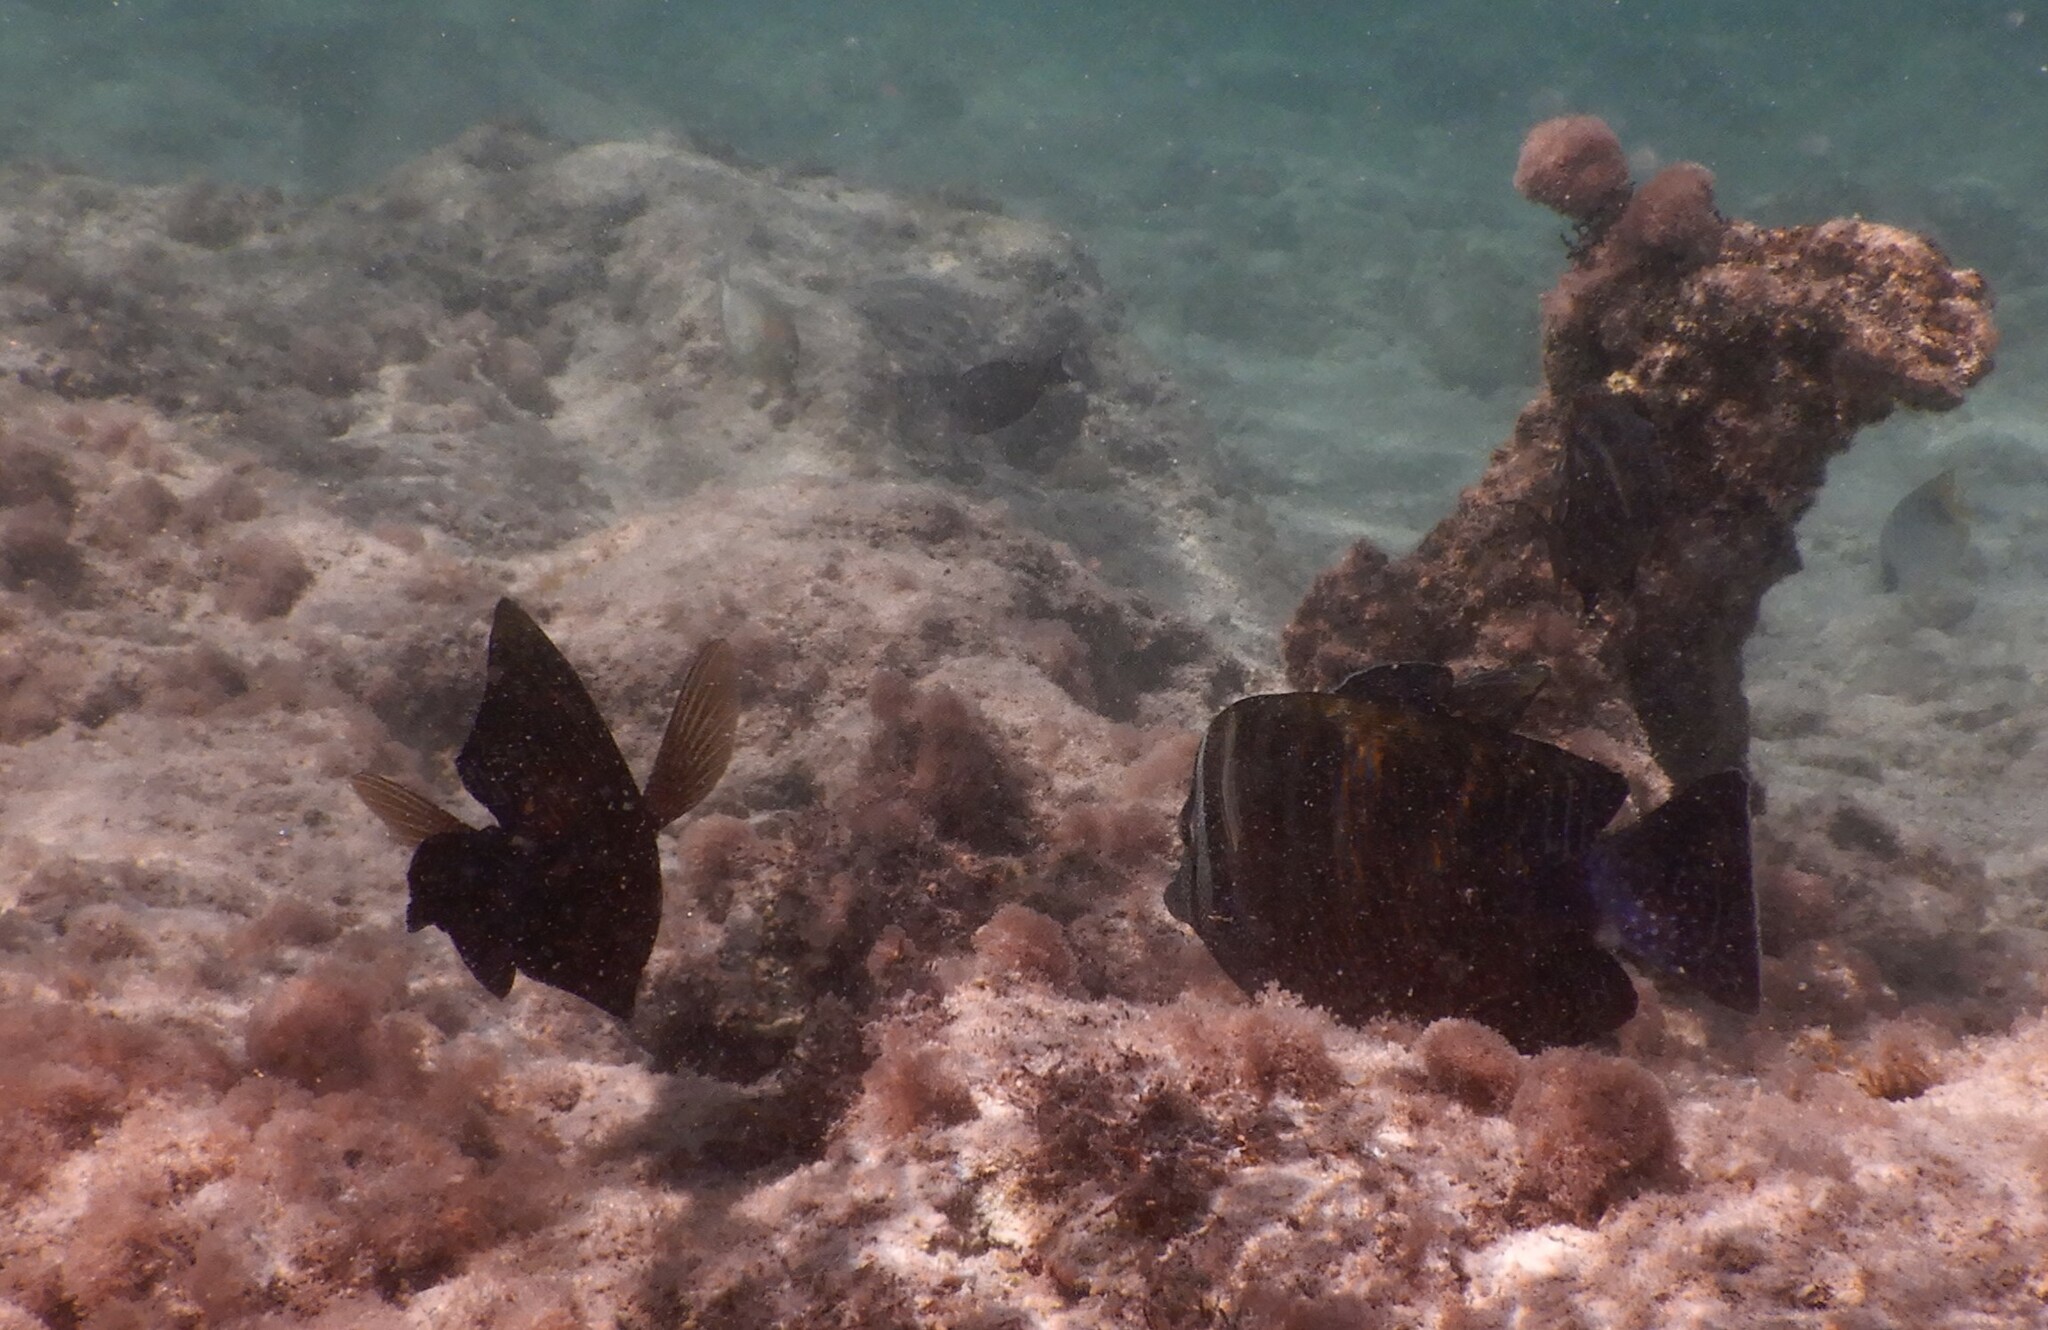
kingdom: Animalia
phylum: Chordata
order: Perciformes
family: Acanthuridae
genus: Zebrasoma
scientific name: Zebrasoma desjardinii
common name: Desjardin's sailfin tang
